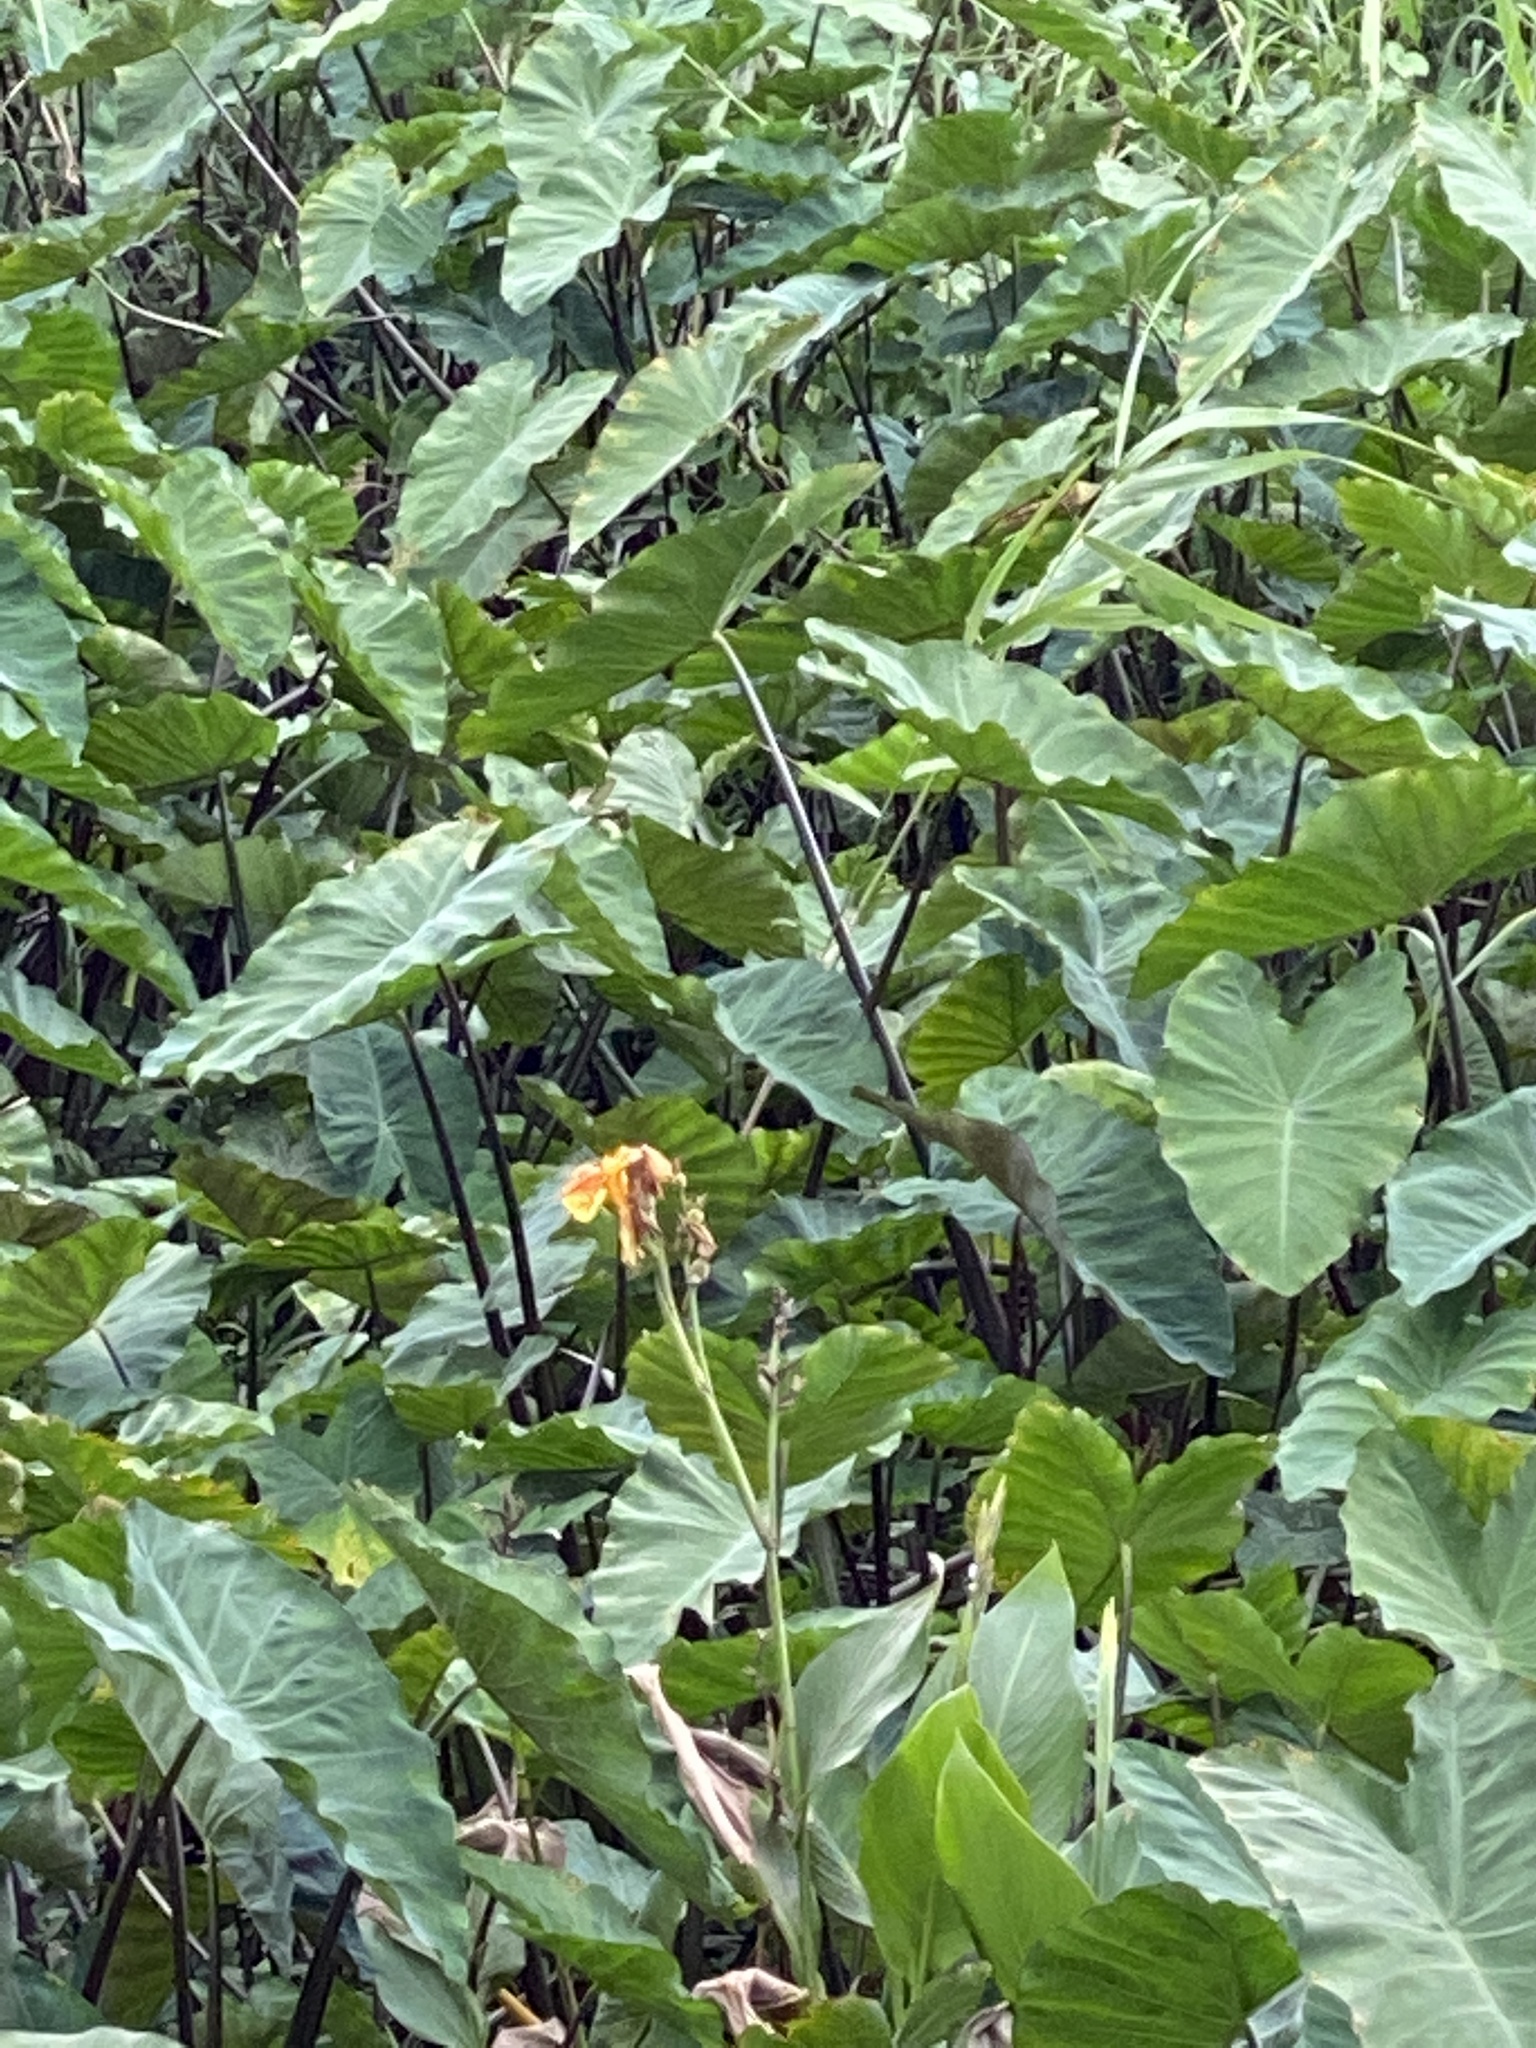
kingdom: Plantae
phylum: Tracheophyta
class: Liliopsida
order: Alismatales
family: Araceae
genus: Colocasia
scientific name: Colocasia esculenta
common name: Taro
